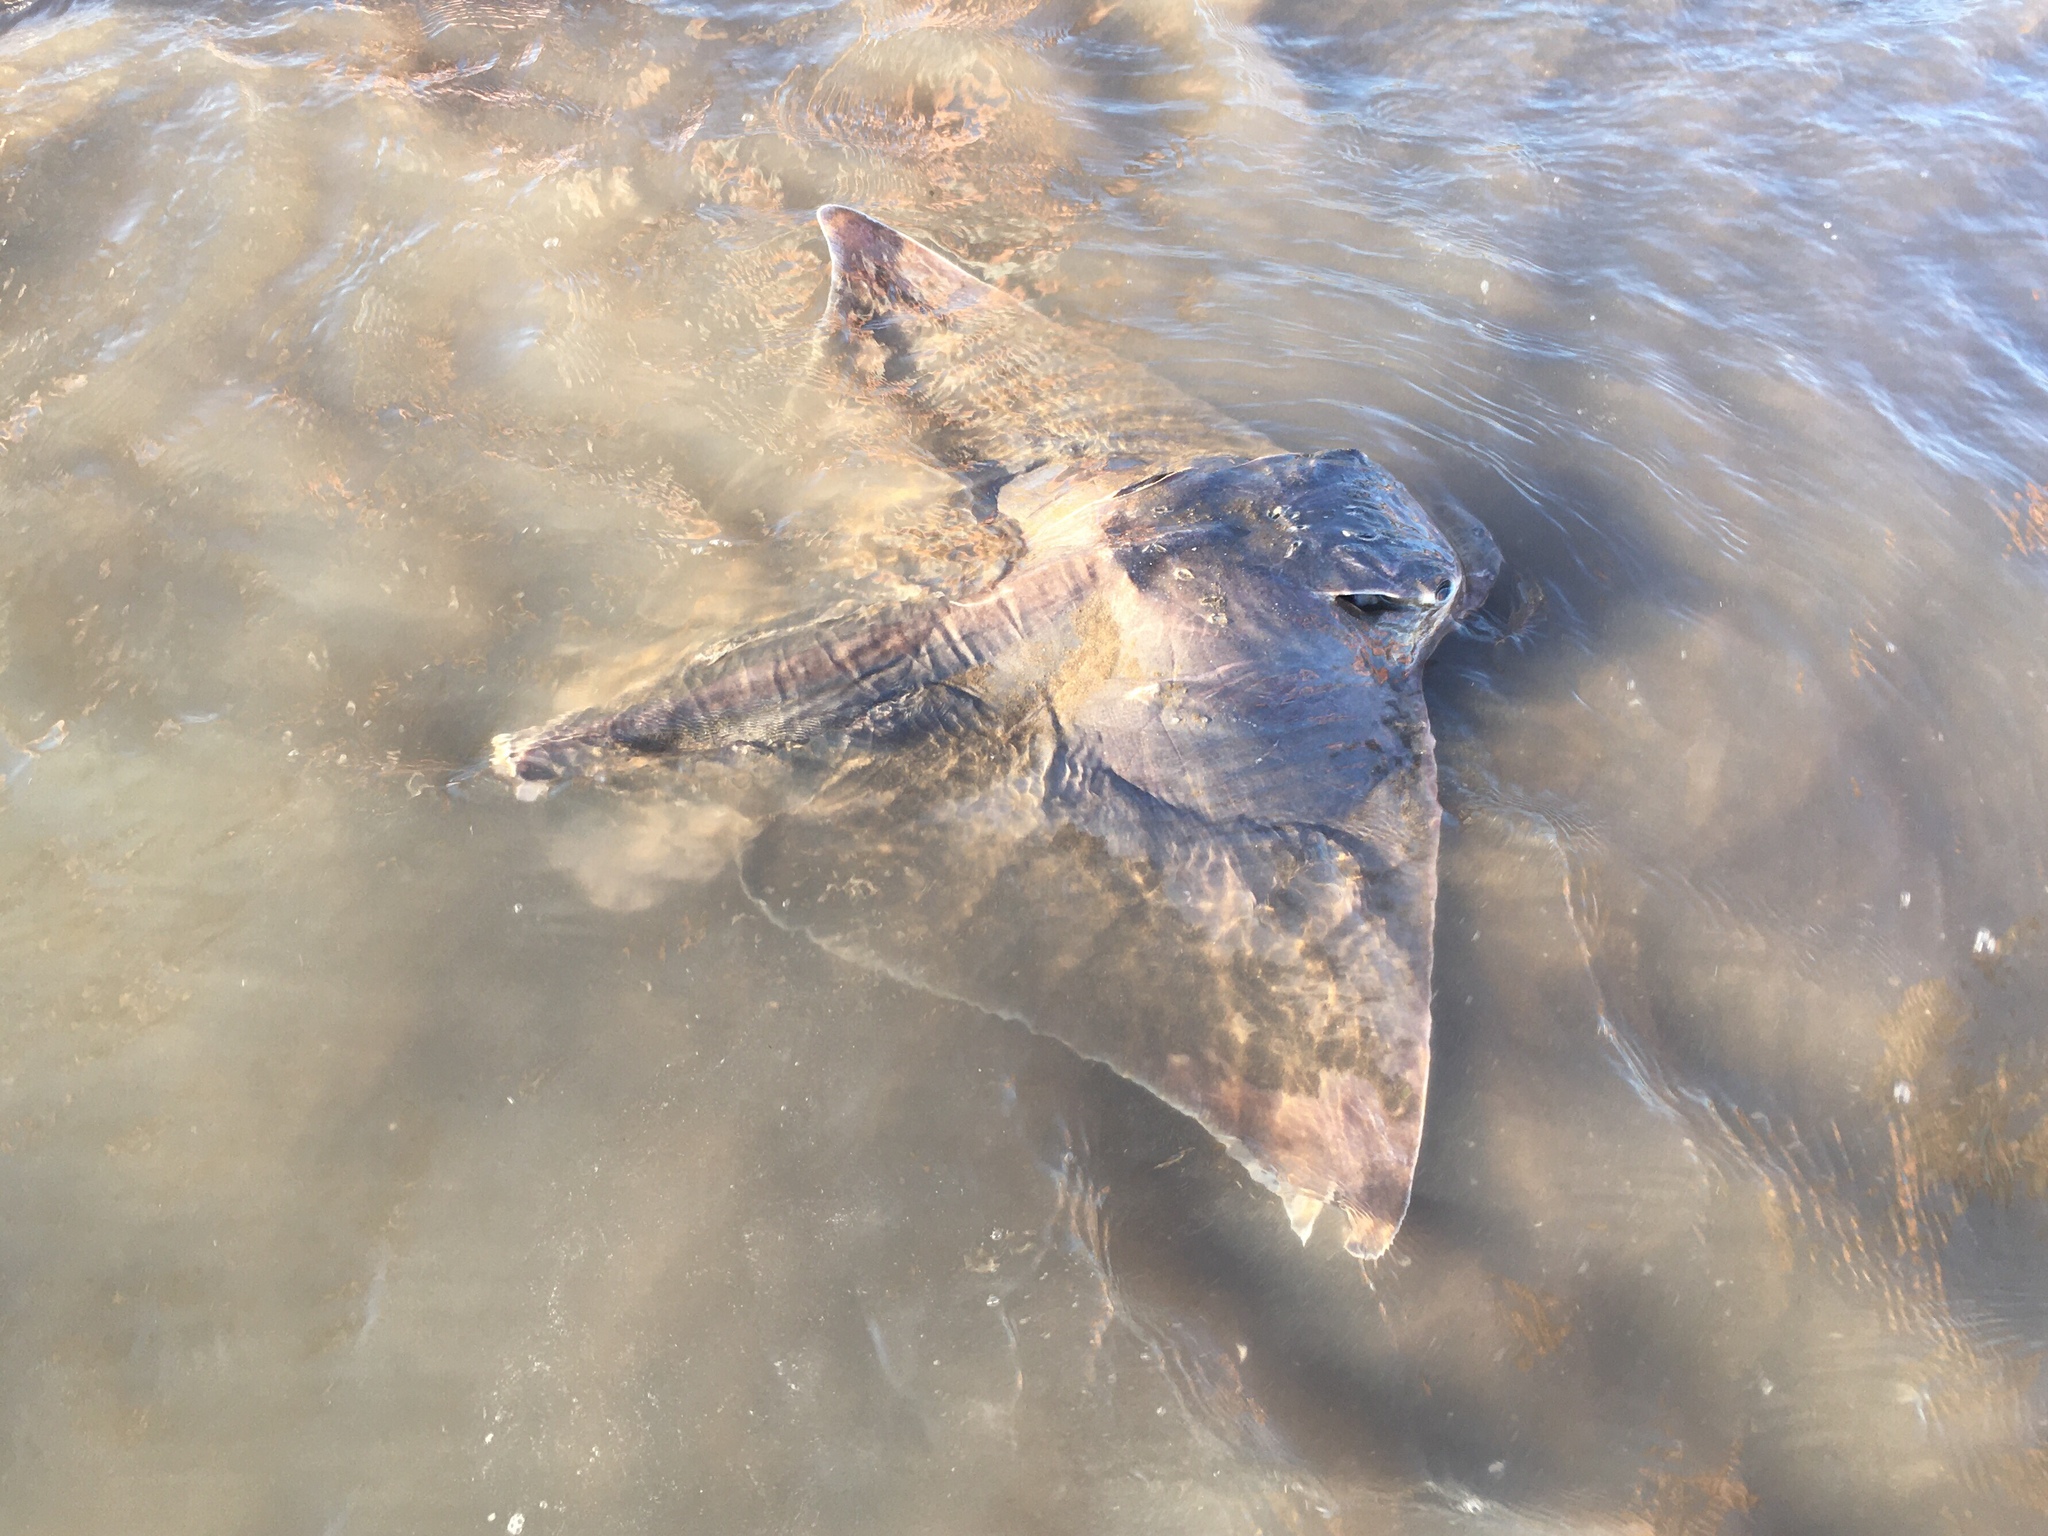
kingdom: Animalia
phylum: Chordata
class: Elasmobranchii
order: Myliobatiformes
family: Myliobatidae
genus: Myliobatis
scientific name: Myliobatis goodei
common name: Southern eagle ray
